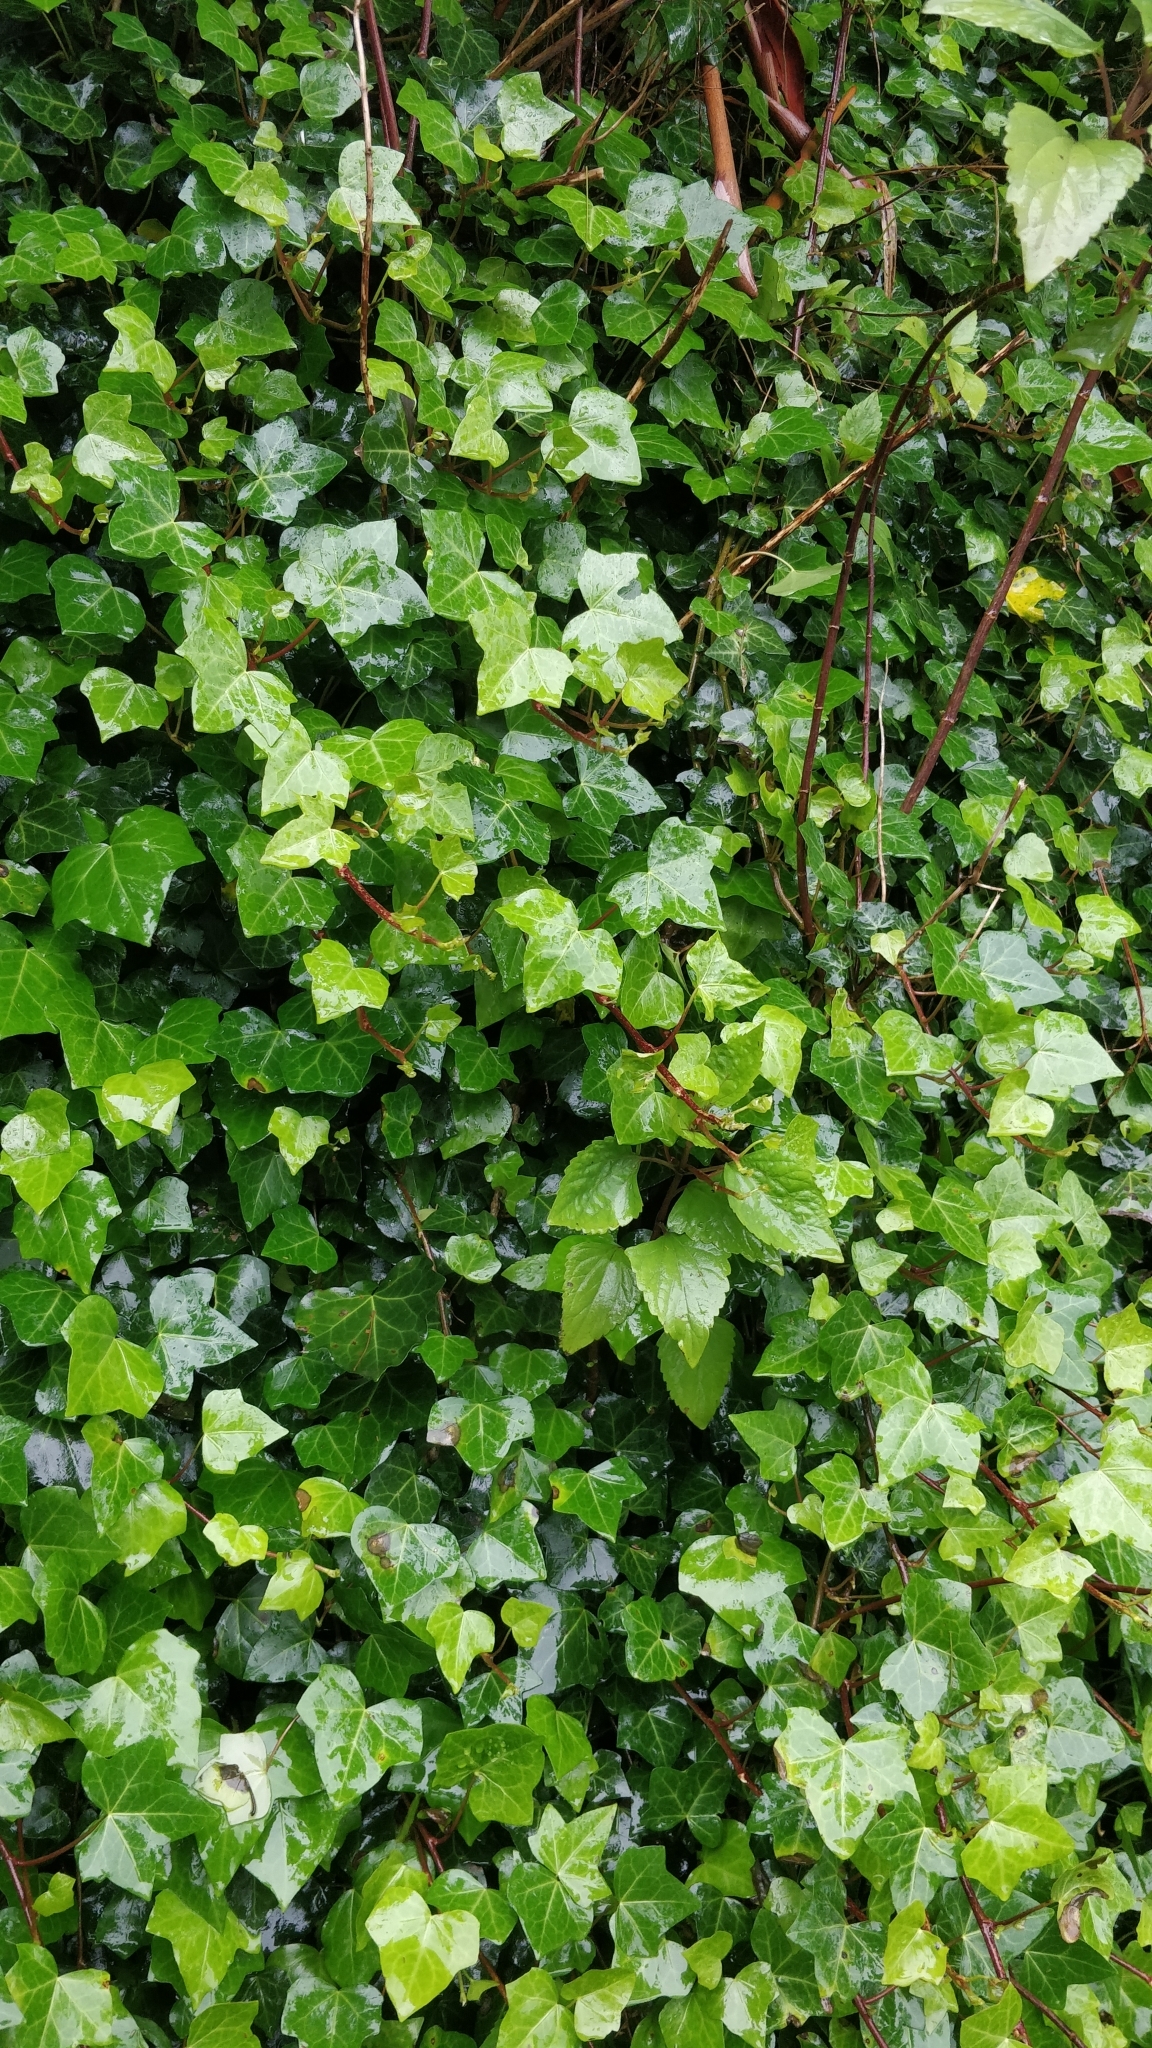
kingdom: Plantae
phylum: Tracheophyta
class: Magnoliopsida
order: Apiales
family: Araliaceae
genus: Hedera
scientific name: Hedera maderensis
